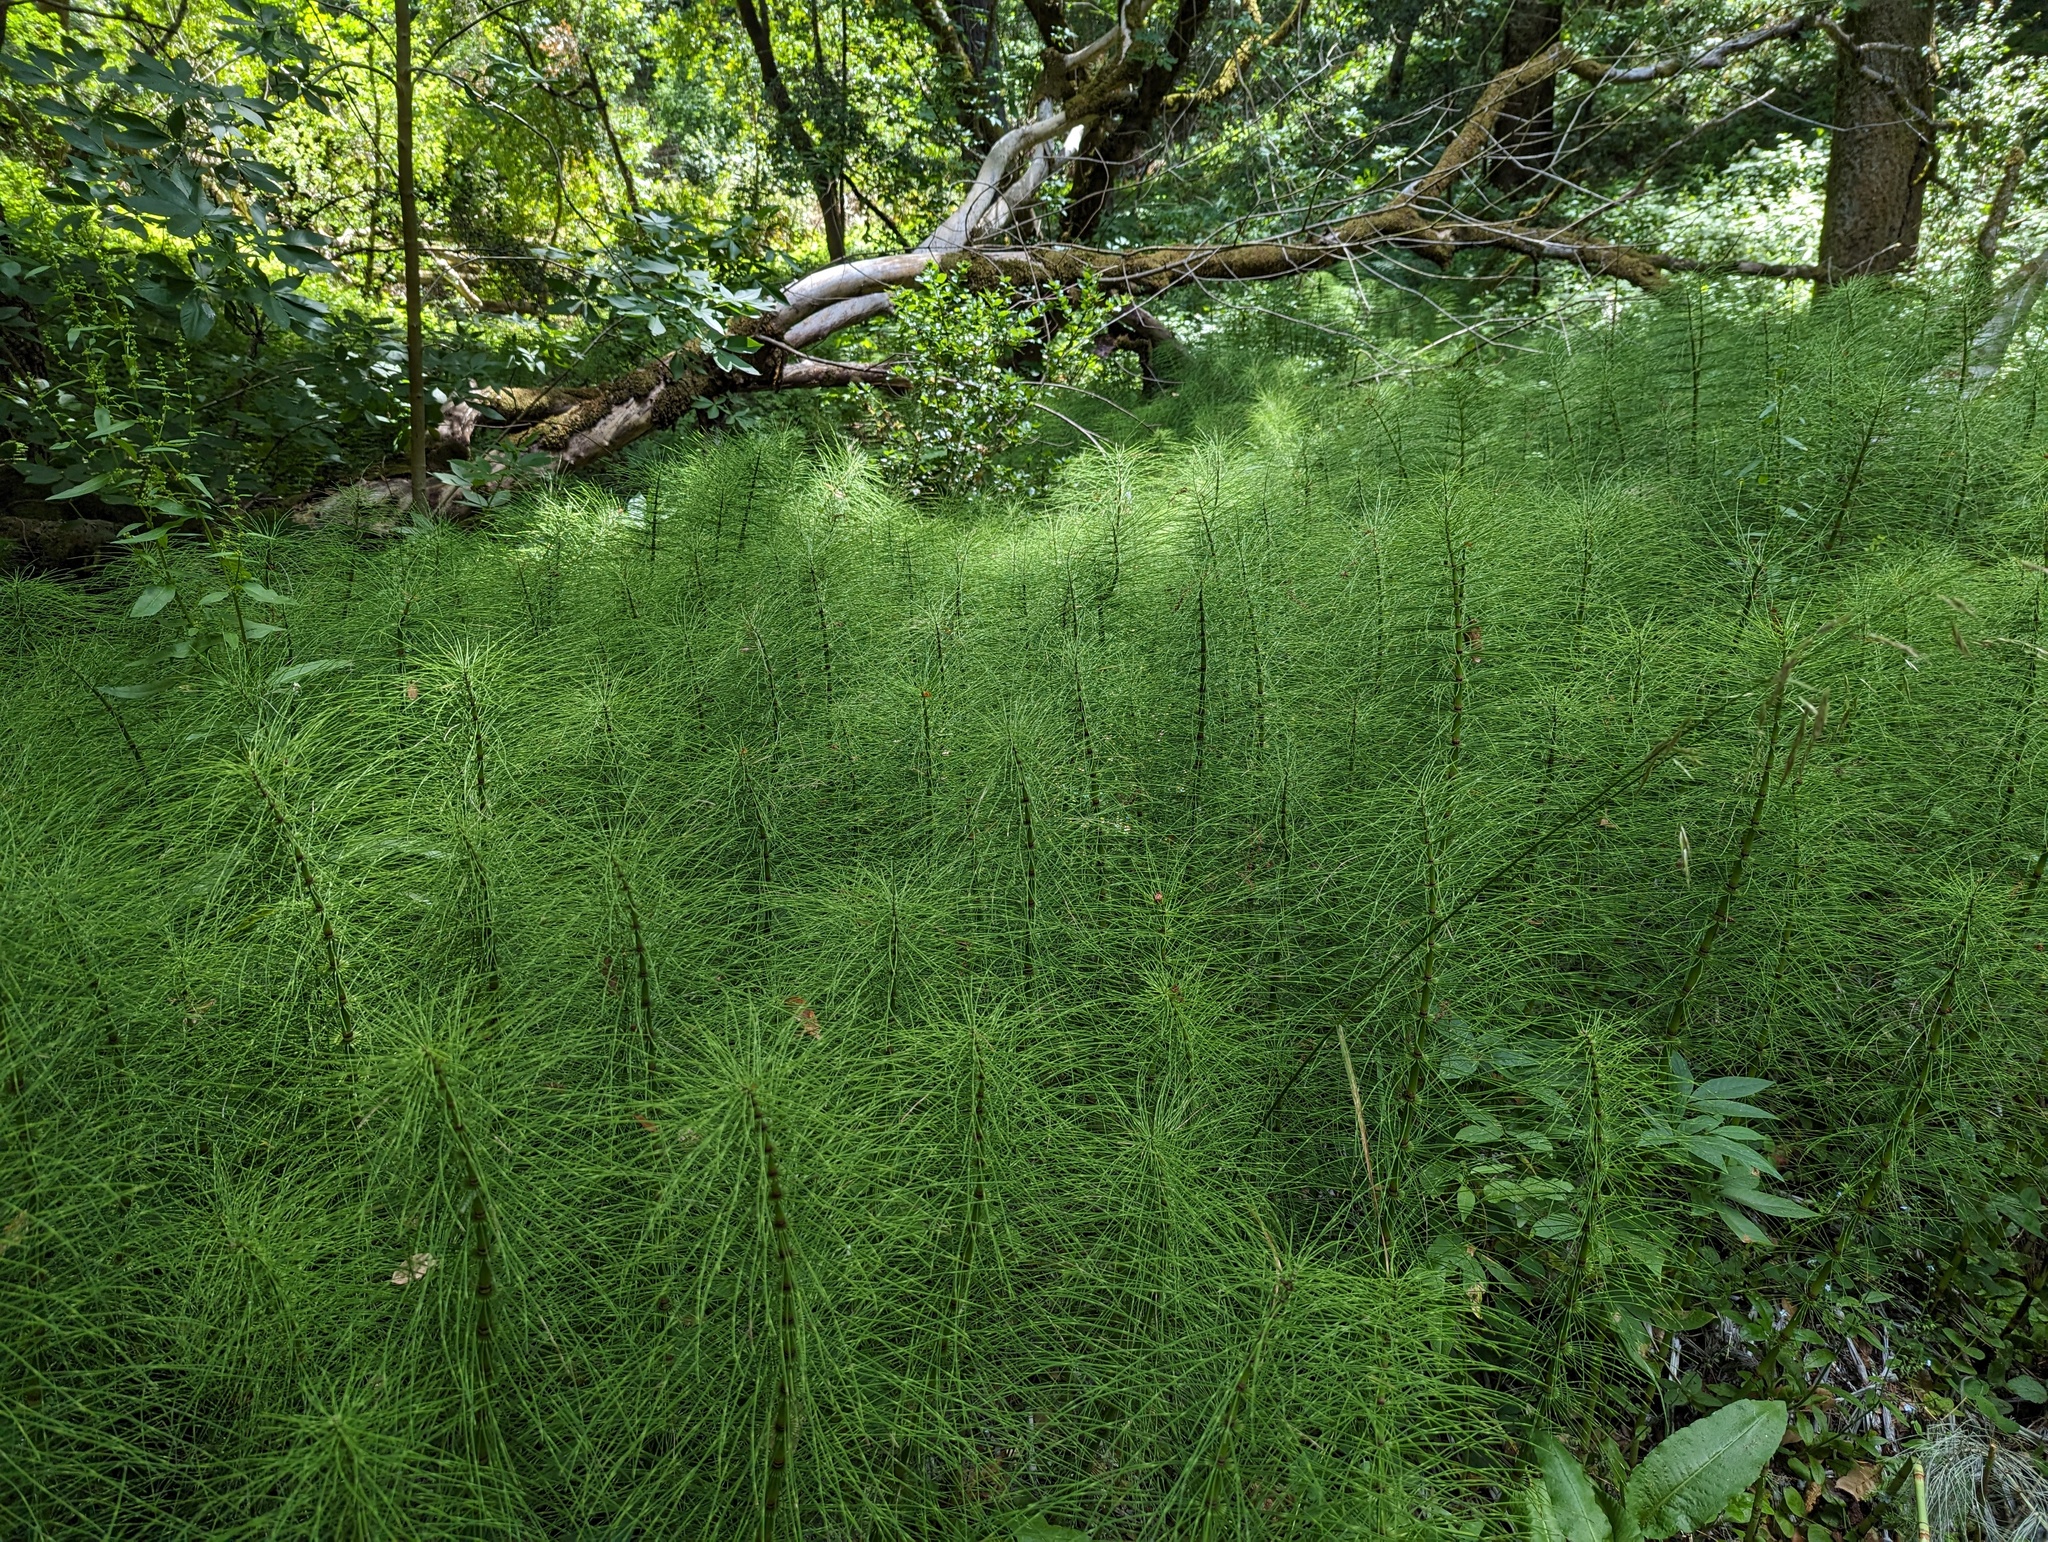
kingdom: Plantae
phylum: Tracheophyta
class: Polypodiopsida
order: Equisetales
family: Equisetaceae
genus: Equisetum
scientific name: Equisetum telmateia
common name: Great horsetail
